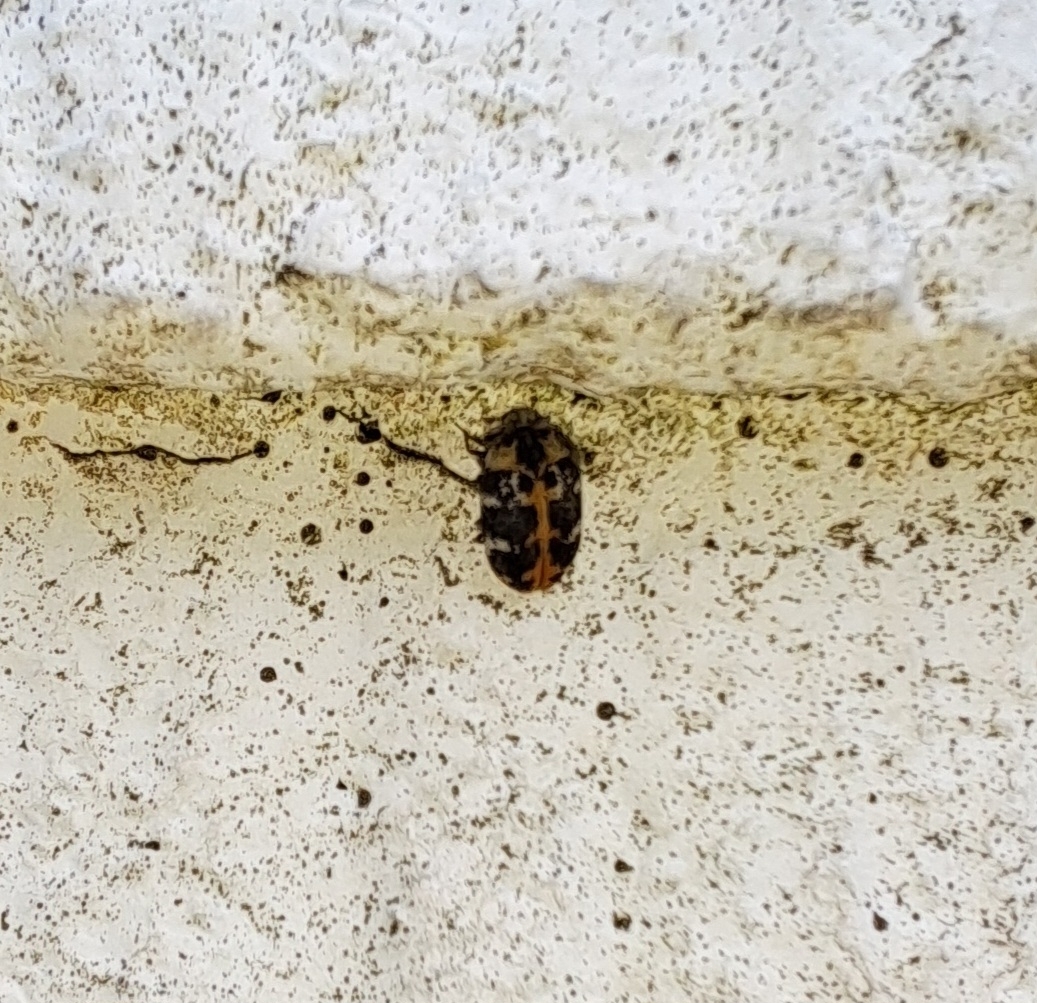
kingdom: Animalia
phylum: Arthropoda
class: Insecta
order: Coleoptera
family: Dermestidae
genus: Anthrenus
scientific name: Anthrenus scrophulariae
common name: Buffalo carpet beetle
